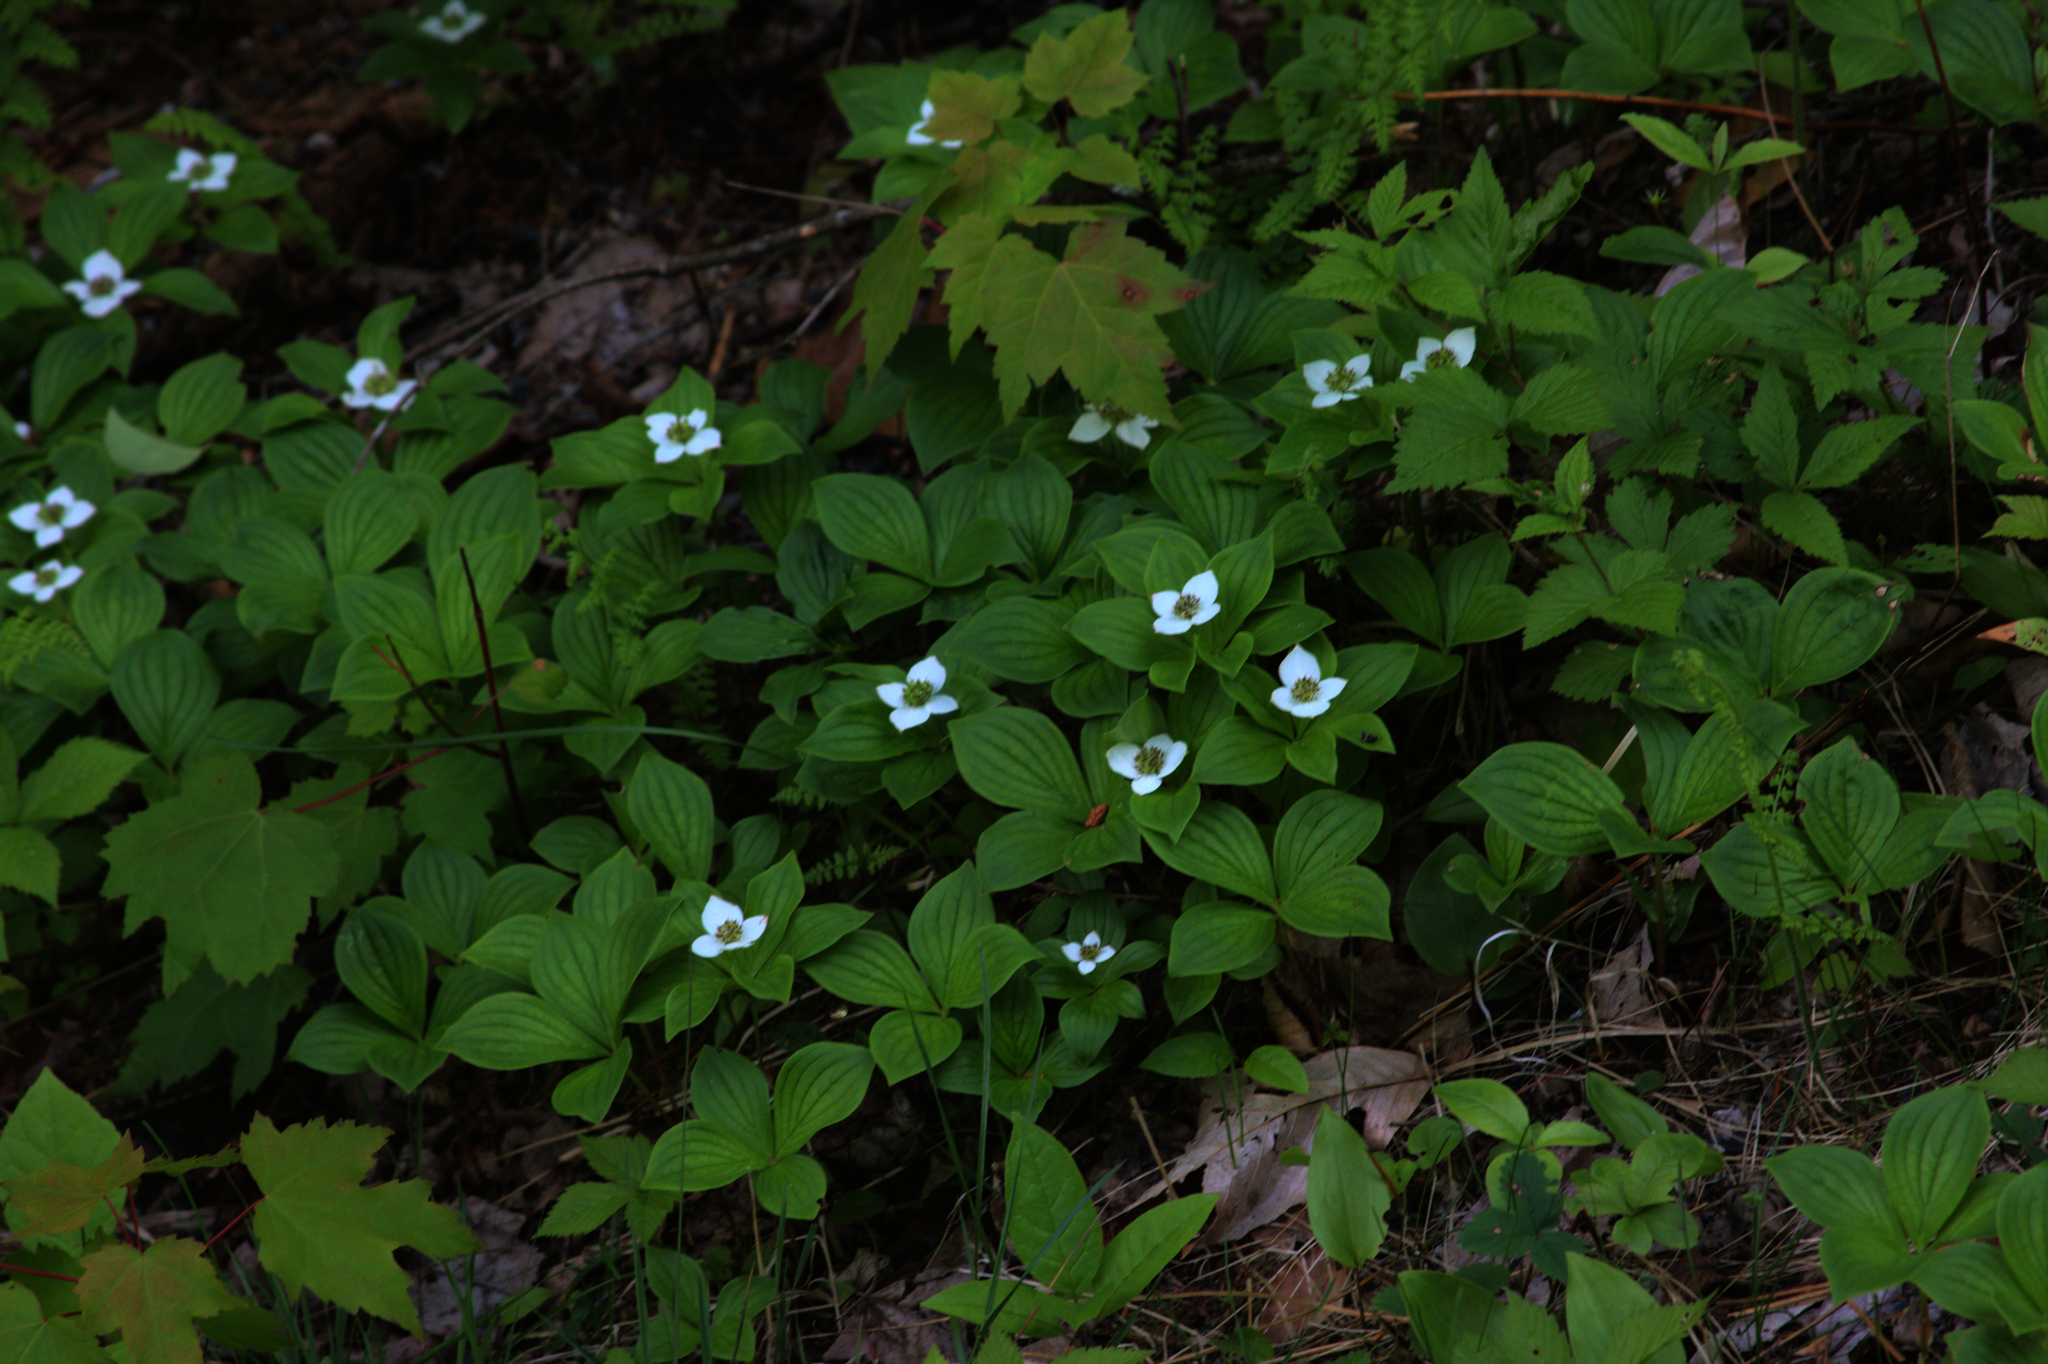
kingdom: Plantae
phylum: Tracheophyta
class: Magnoliopsida
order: Cornales
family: Cornaceae
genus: Cornus
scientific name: Cornus canadensis
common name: Creeping dogwood
